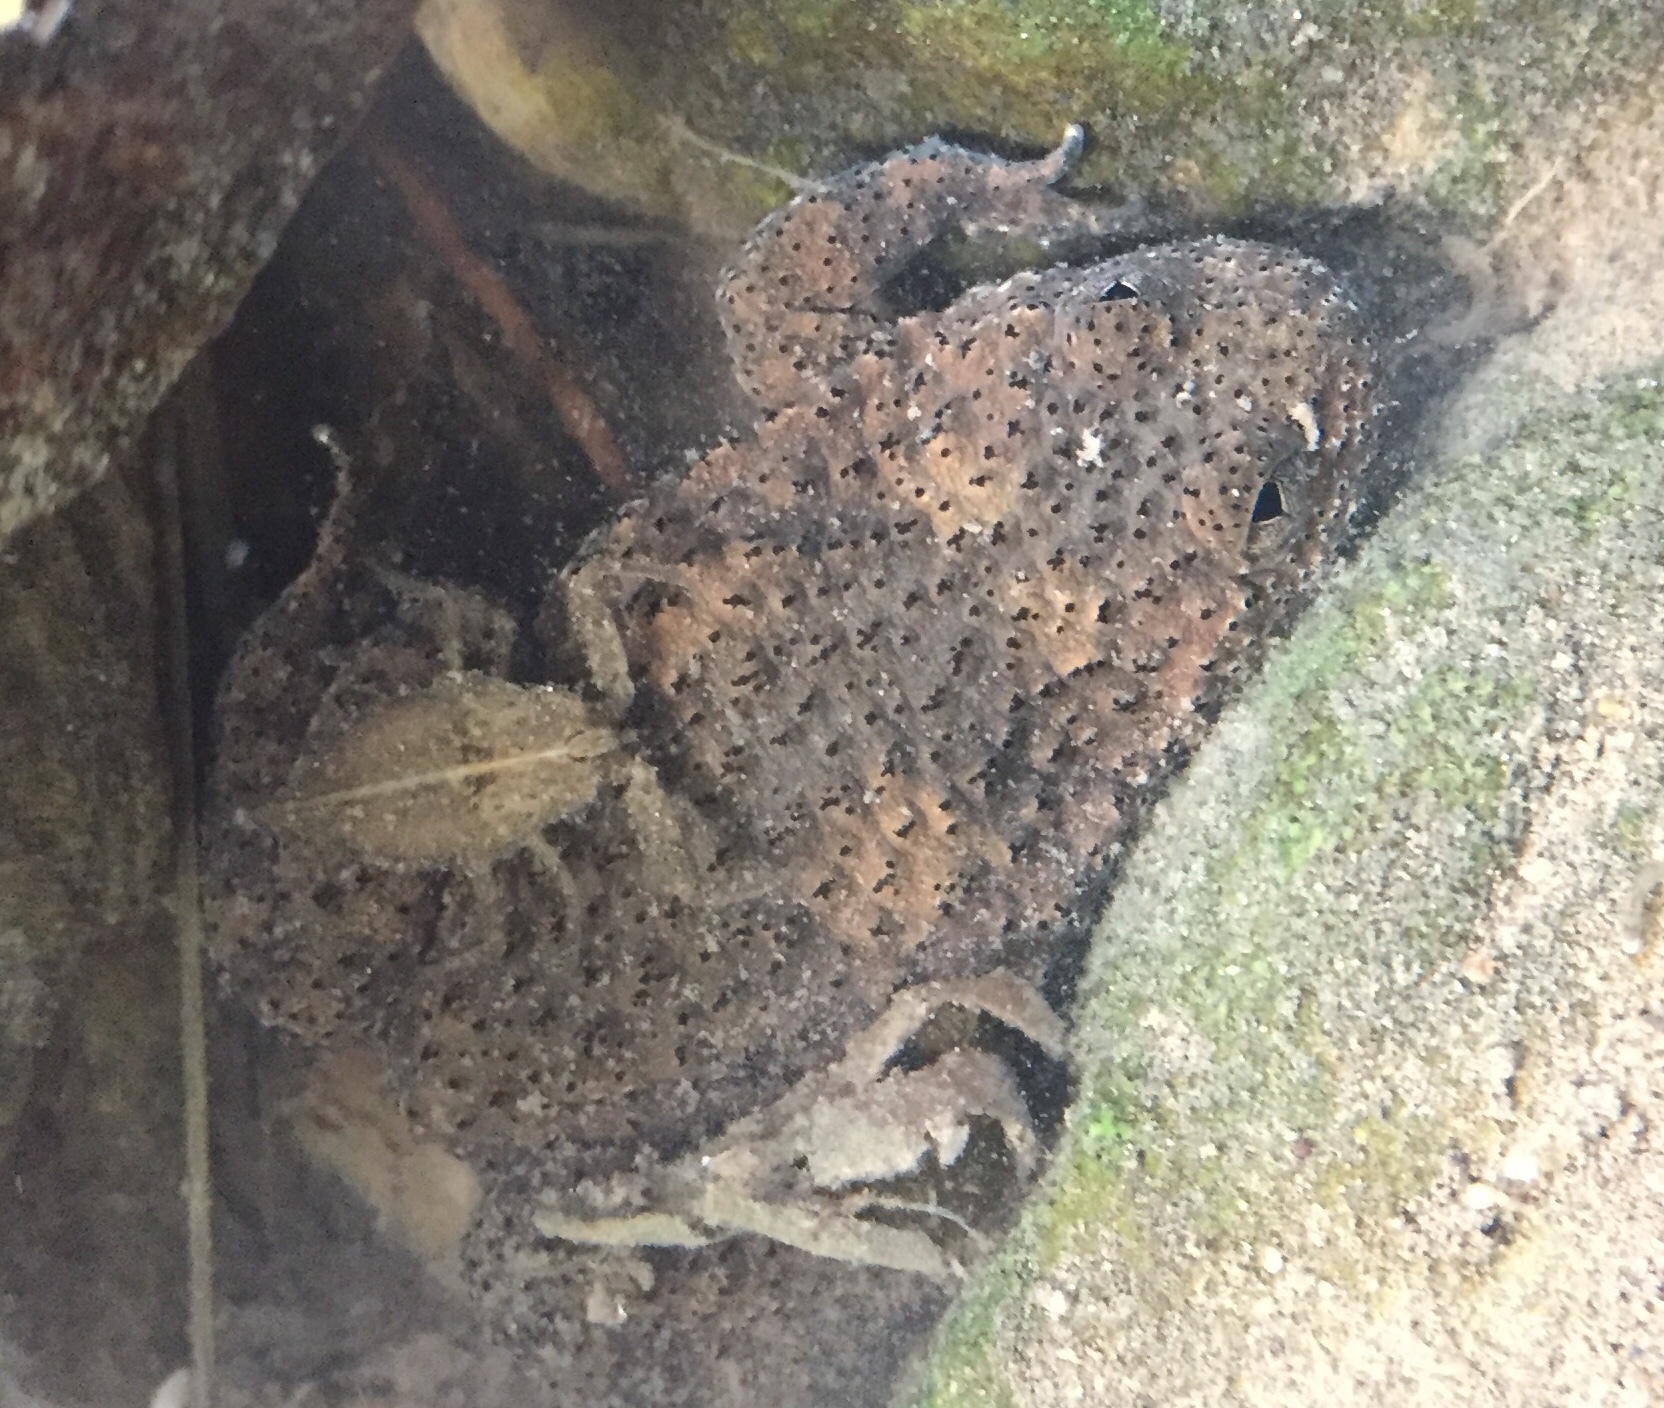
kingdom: Animalia
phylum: Chordata
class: Amphibia
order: Anura
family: Bombinatoridae
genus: Bombina
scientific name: Bombina variegata
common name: Yellow-bellied toad
